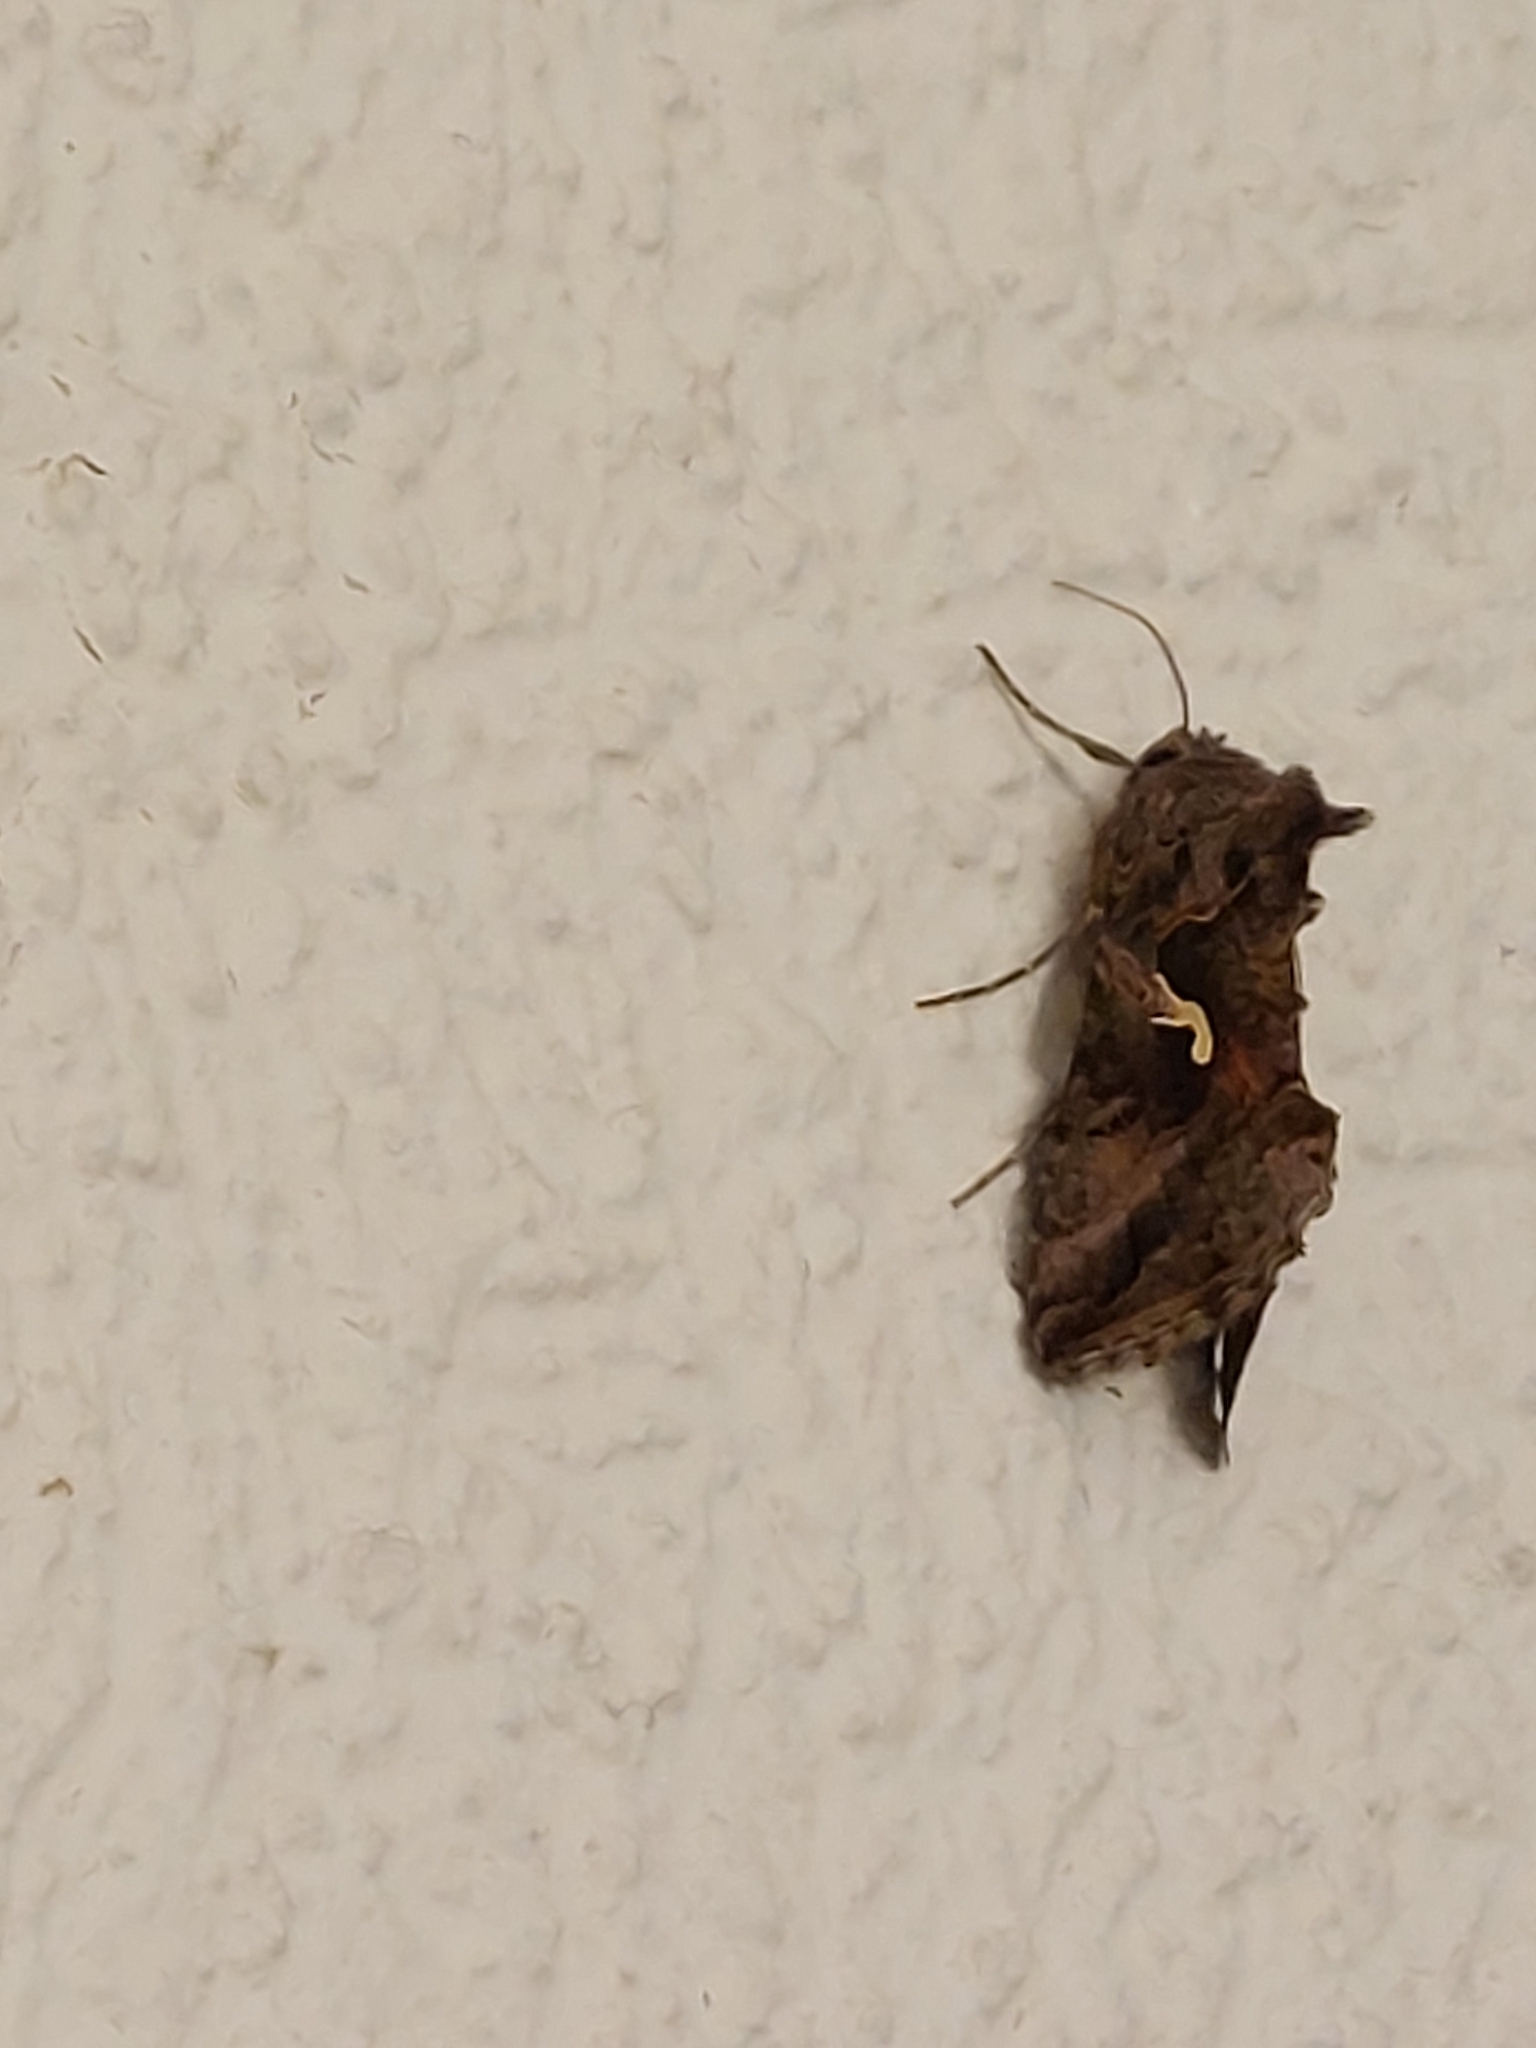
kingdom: Animalia
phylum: Arthropoda
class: Insecta
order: Lepidoptera
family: Noctuidae
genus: Autographa
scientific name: Autographa gamma
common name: Silver y
